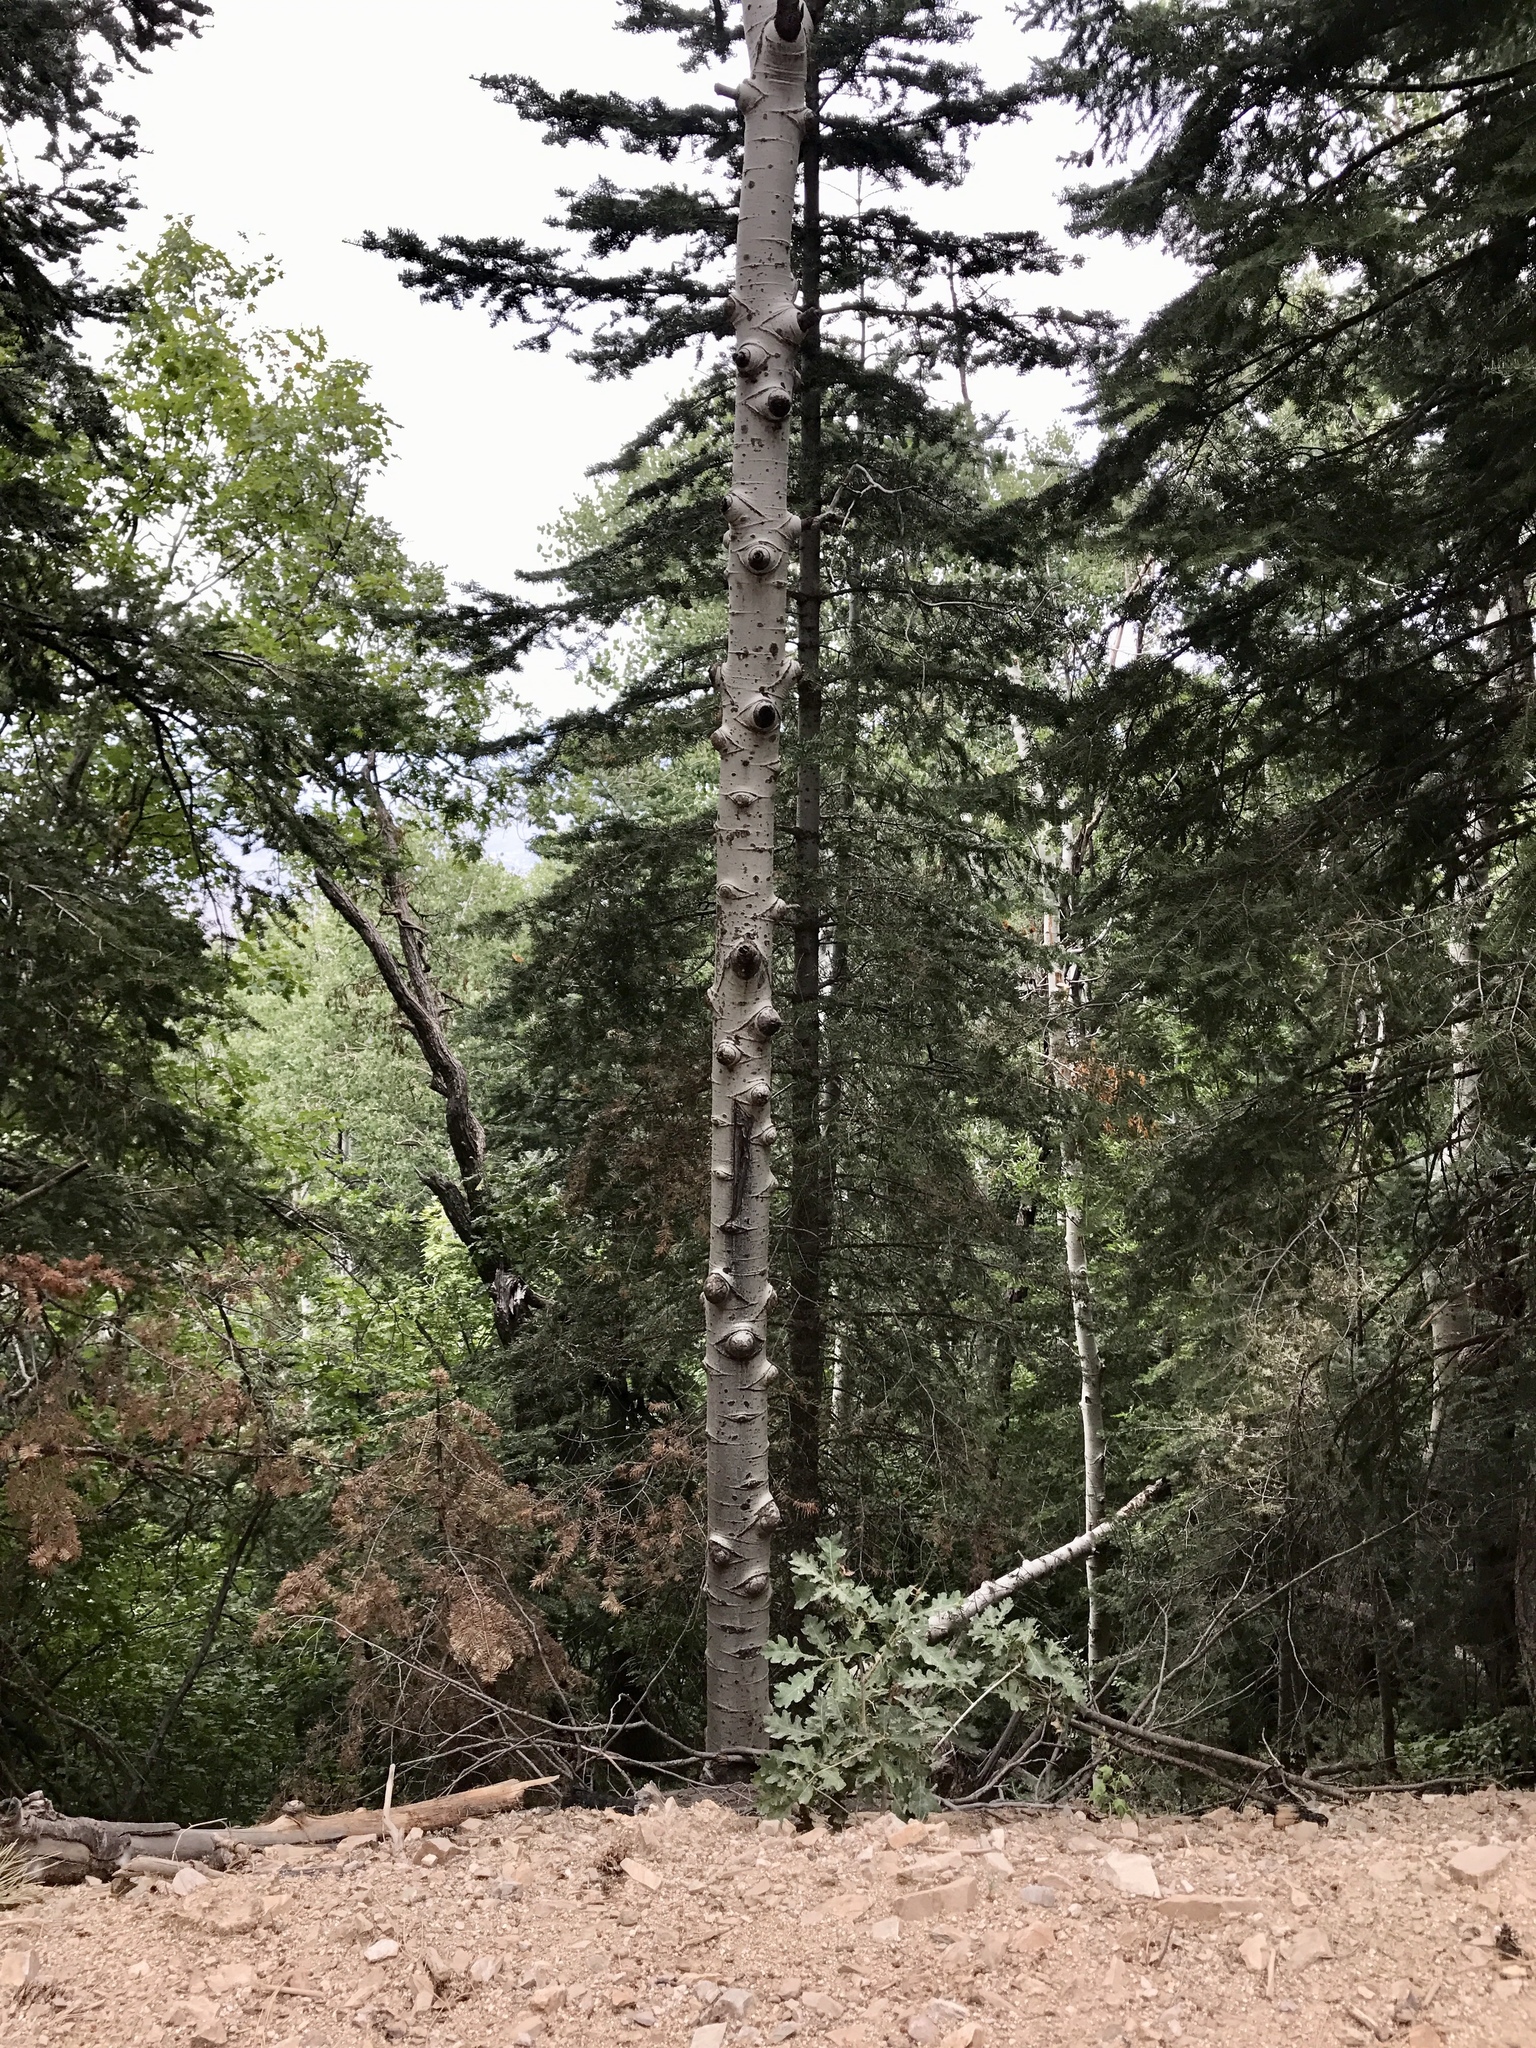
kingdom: Plantae
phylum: Tracheophyta
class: Magnoliopsida
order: Malpighiales
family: Salicaceae
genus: Populus
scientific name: Populus tremuloides
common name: Quaking aspen
